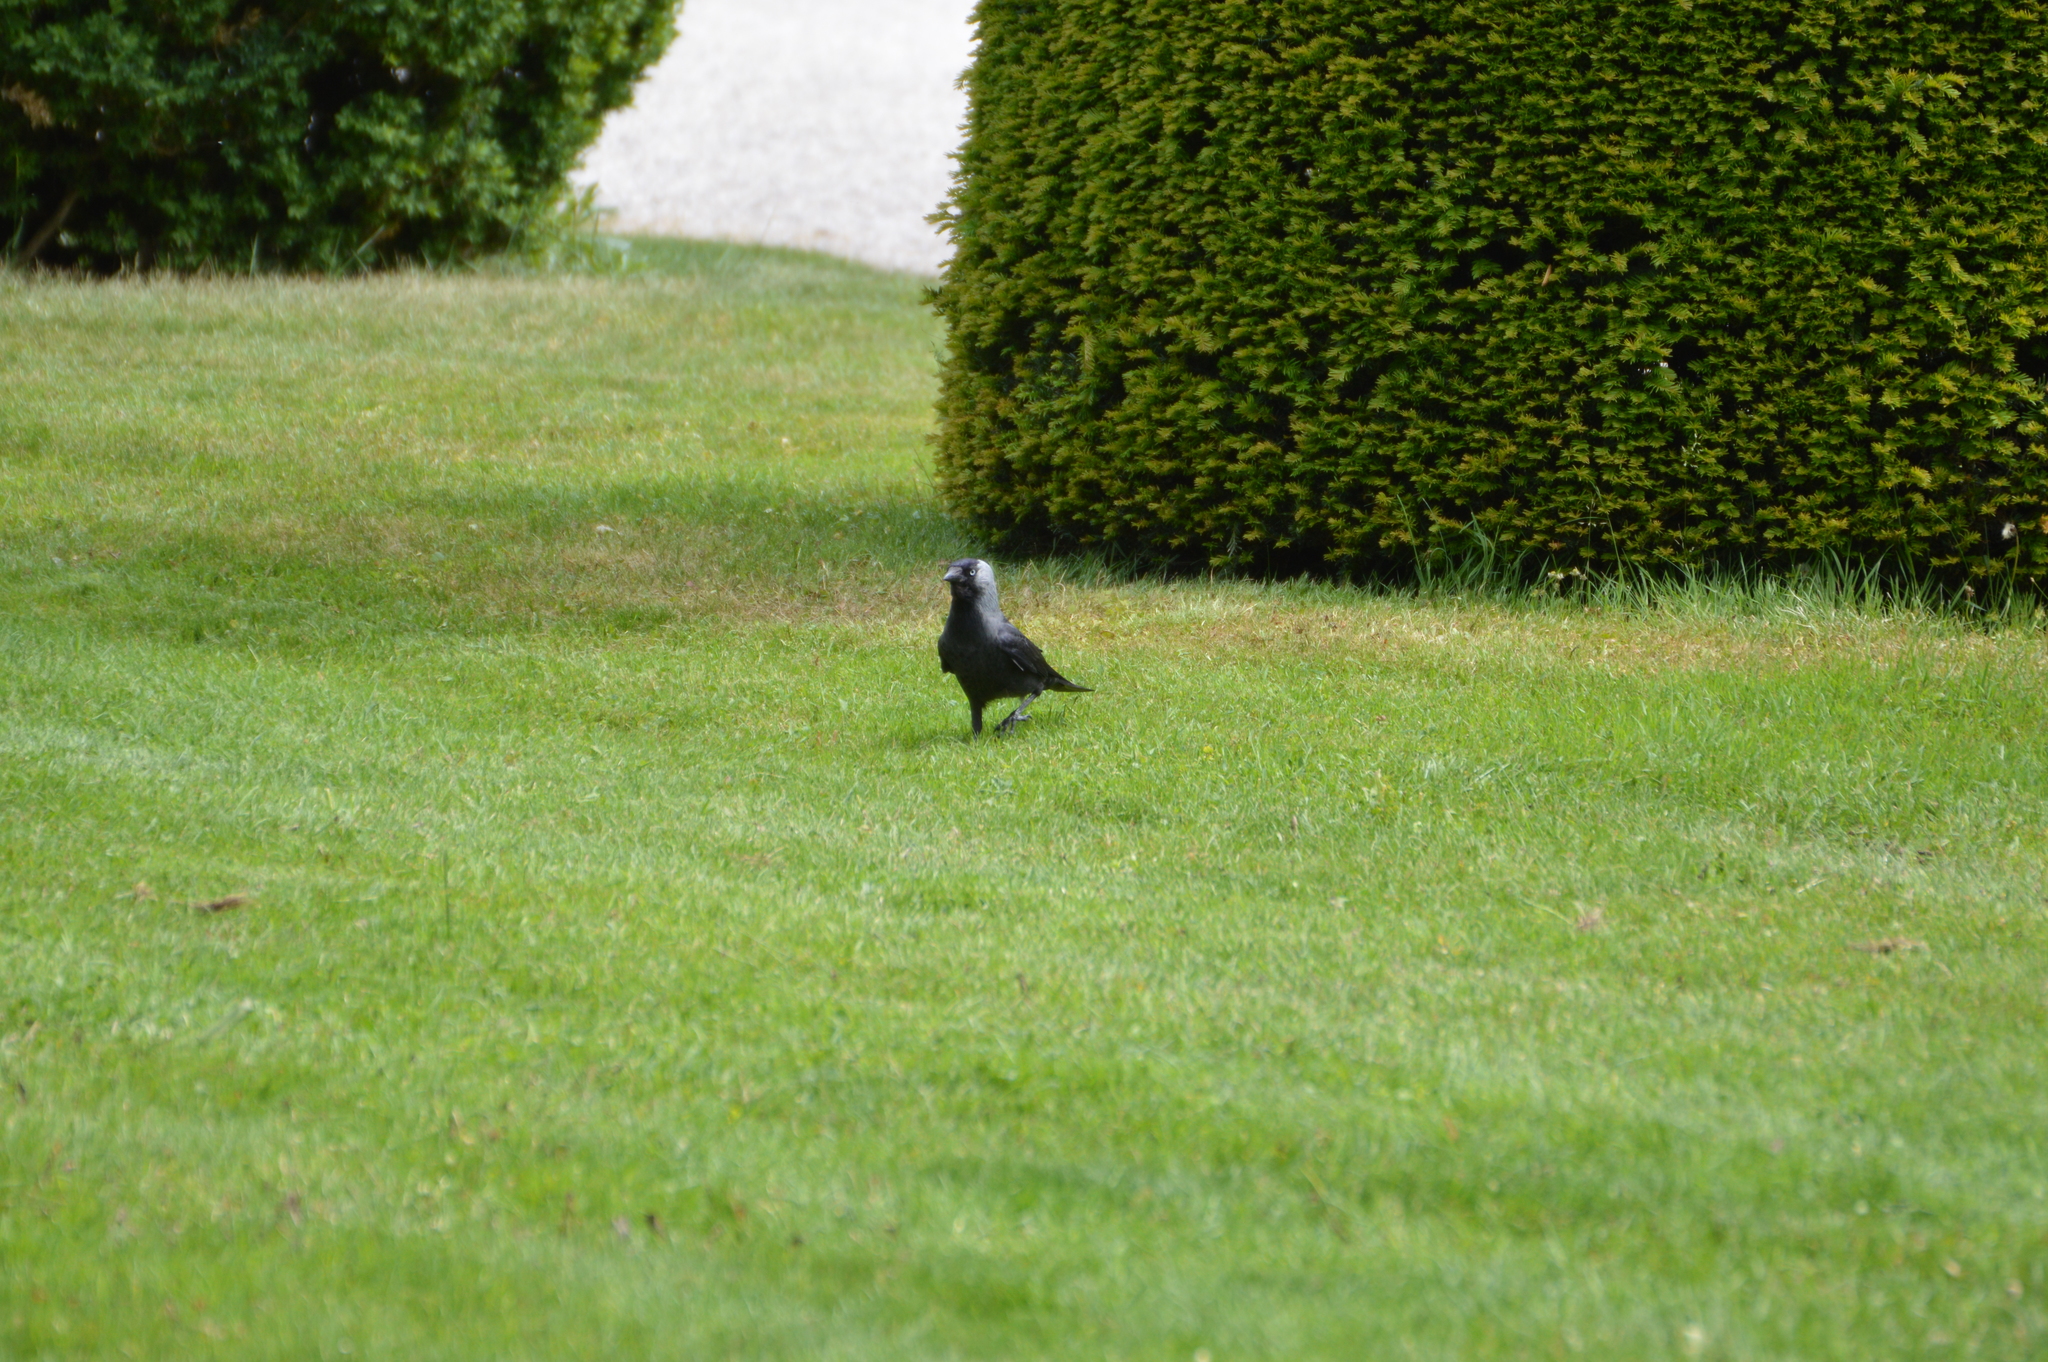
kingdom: Animalia
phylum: Chordata
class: Aves
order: Passeriformes
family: Corvidae
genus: Coloeus
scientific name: Coloeus monedula
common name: Western jackdaw
